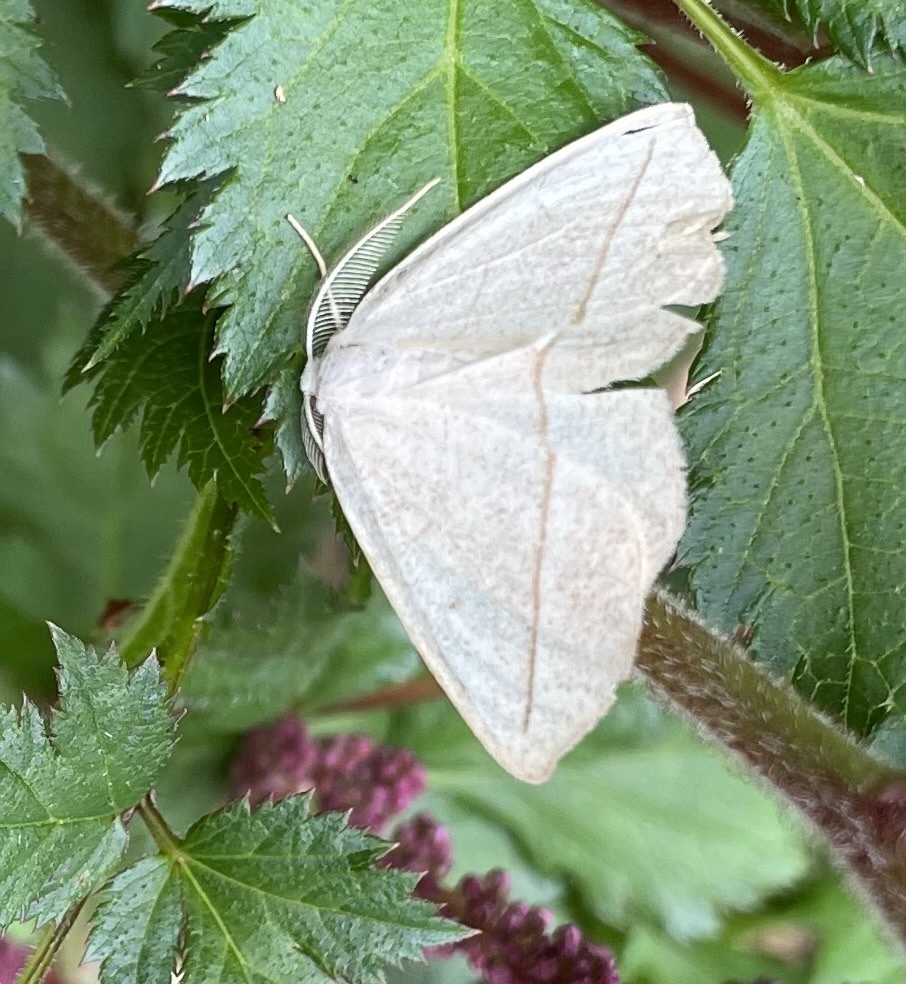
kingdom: Animalia
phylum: Arthropoda
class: Insecta
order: Lepidoptera
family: Geometridae
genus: Eusarca
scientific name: Eusarca confusaria
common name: Confused eusarca
